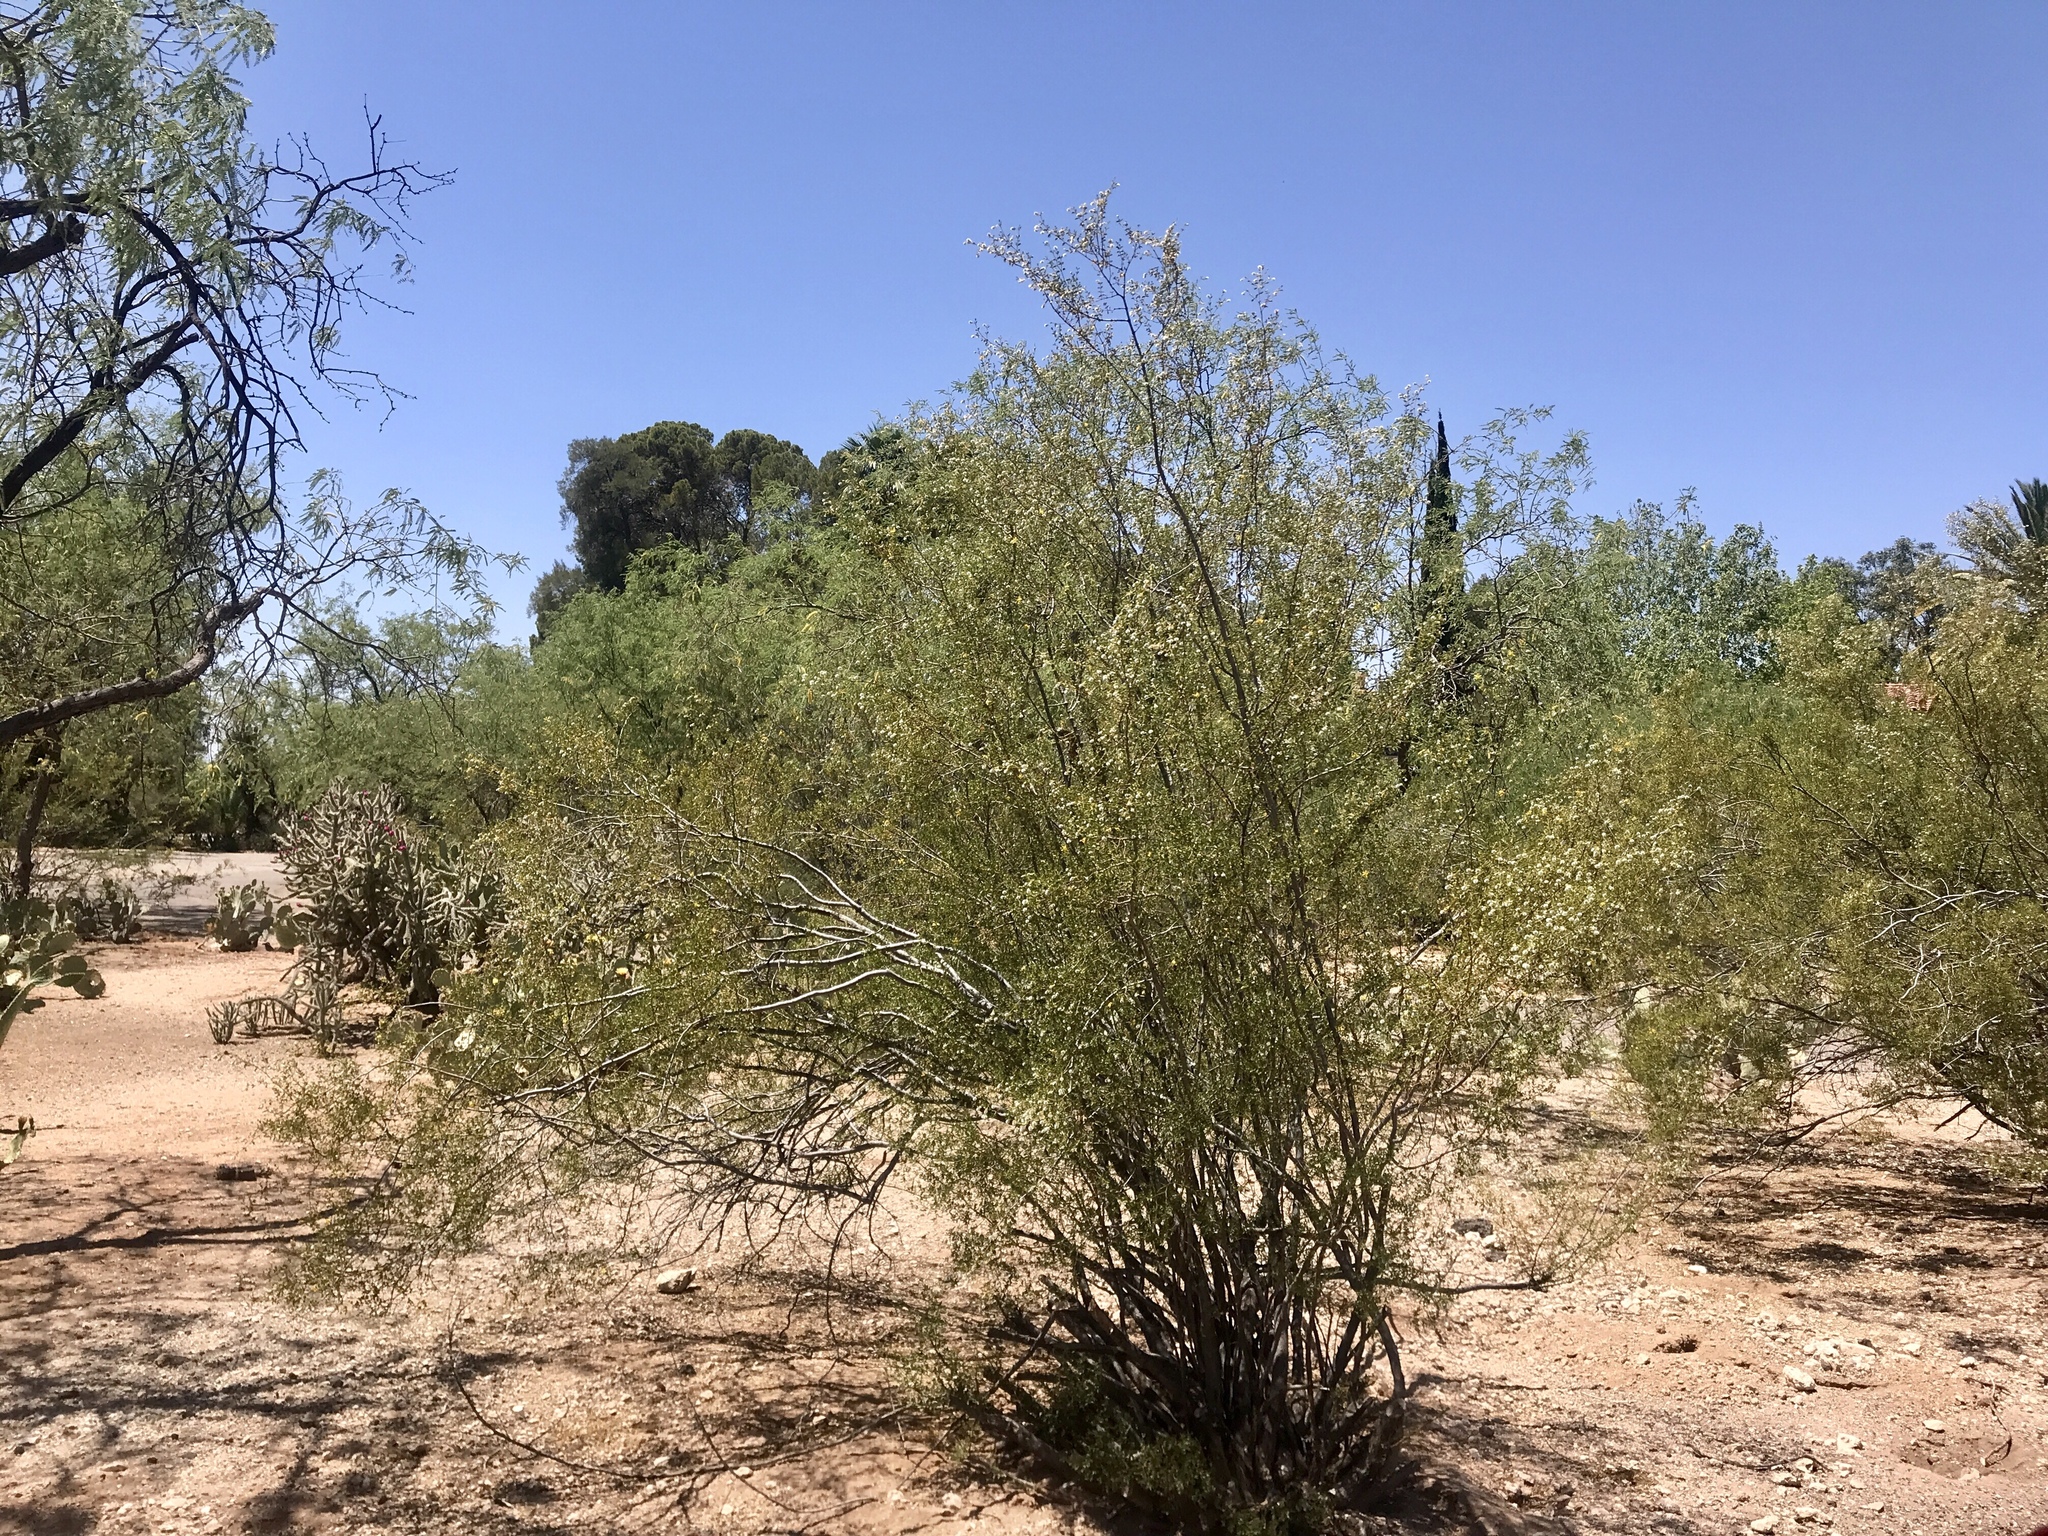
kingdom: Plantae
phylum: Tracheophyta
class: Magnoliopsida
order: Zygophyllales
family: Zygophyllaceae
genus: Larrea
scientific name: Larrea tridentata
